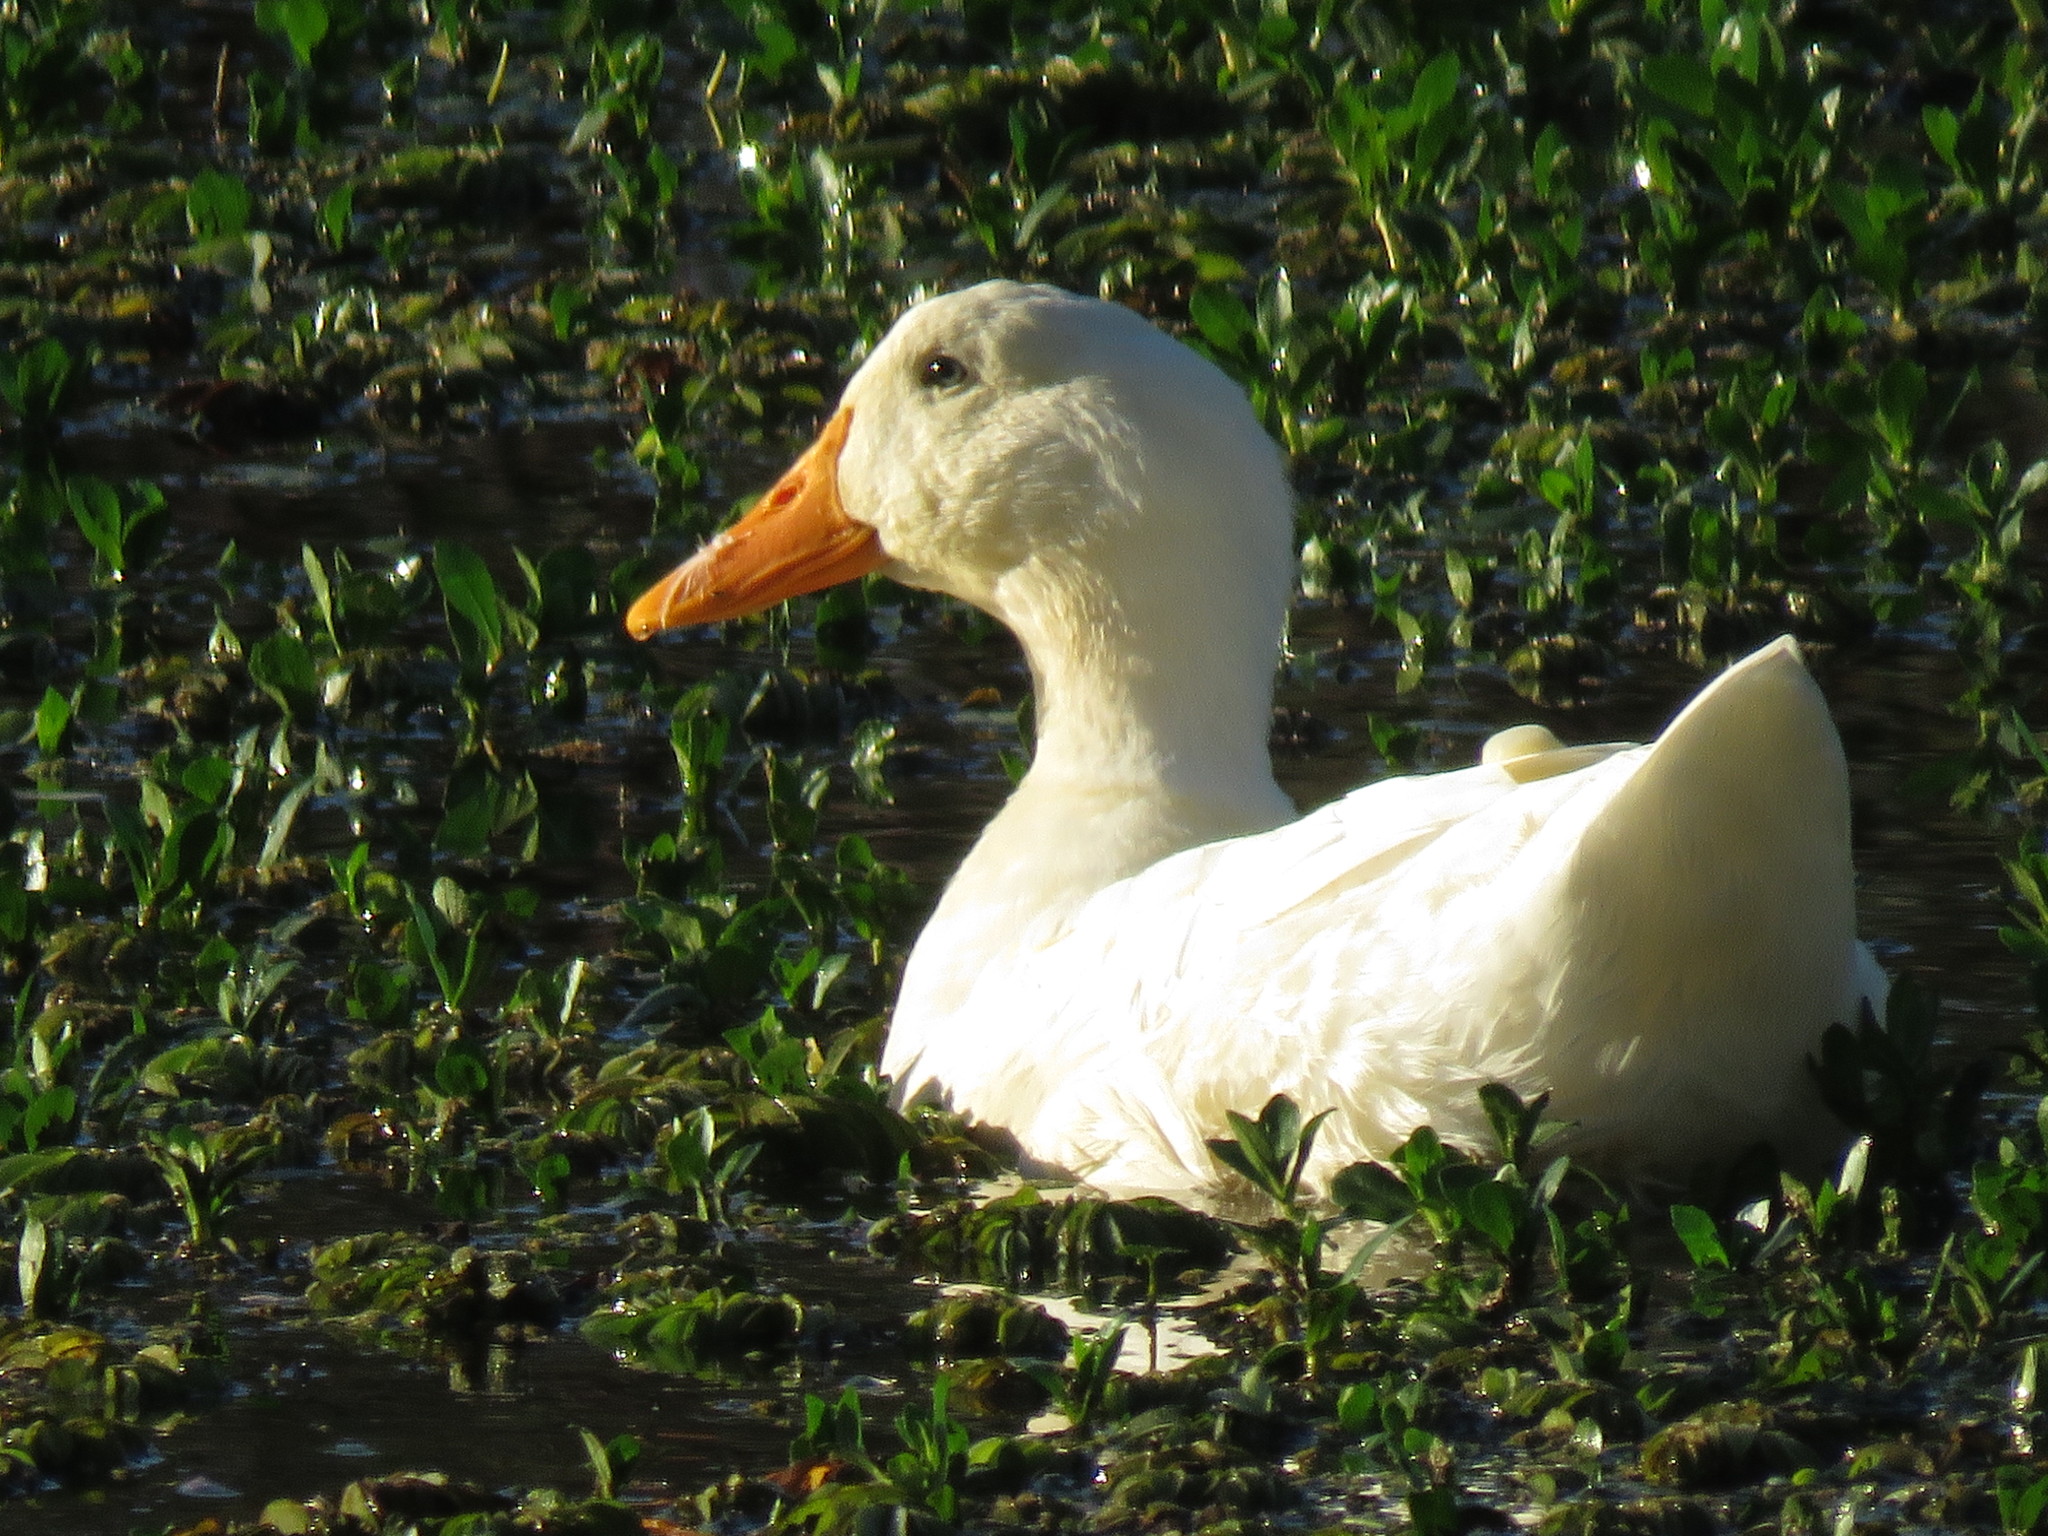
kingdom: Animalia
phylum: Chordata
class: Aves
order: Anseriformes
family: Anatidae
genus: Anas
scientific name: Anas platyrhynchos
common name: Mallard
